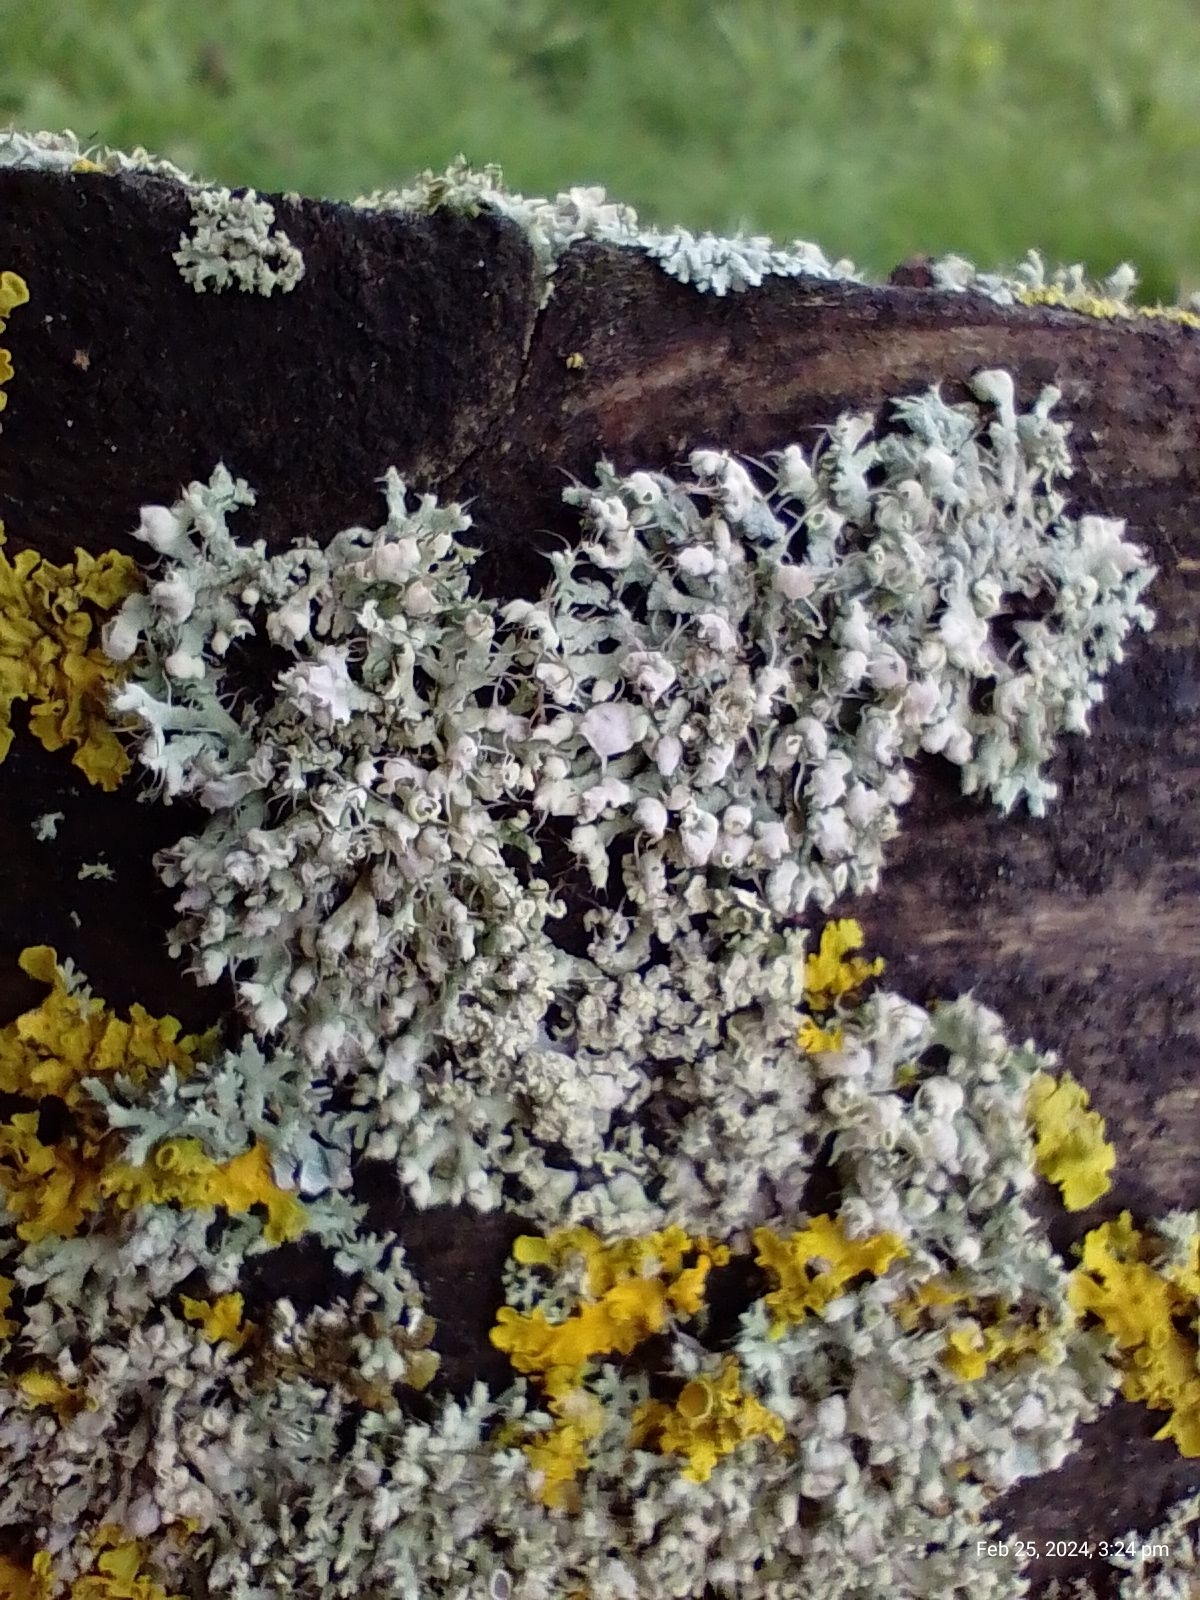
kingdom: Fungi
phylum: Ascomycota
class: Lecanoromycetes
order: Caliciales
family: Physciaceae
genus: Physcia
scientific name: Physcia adscendens
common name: Hooded rosette lichen
